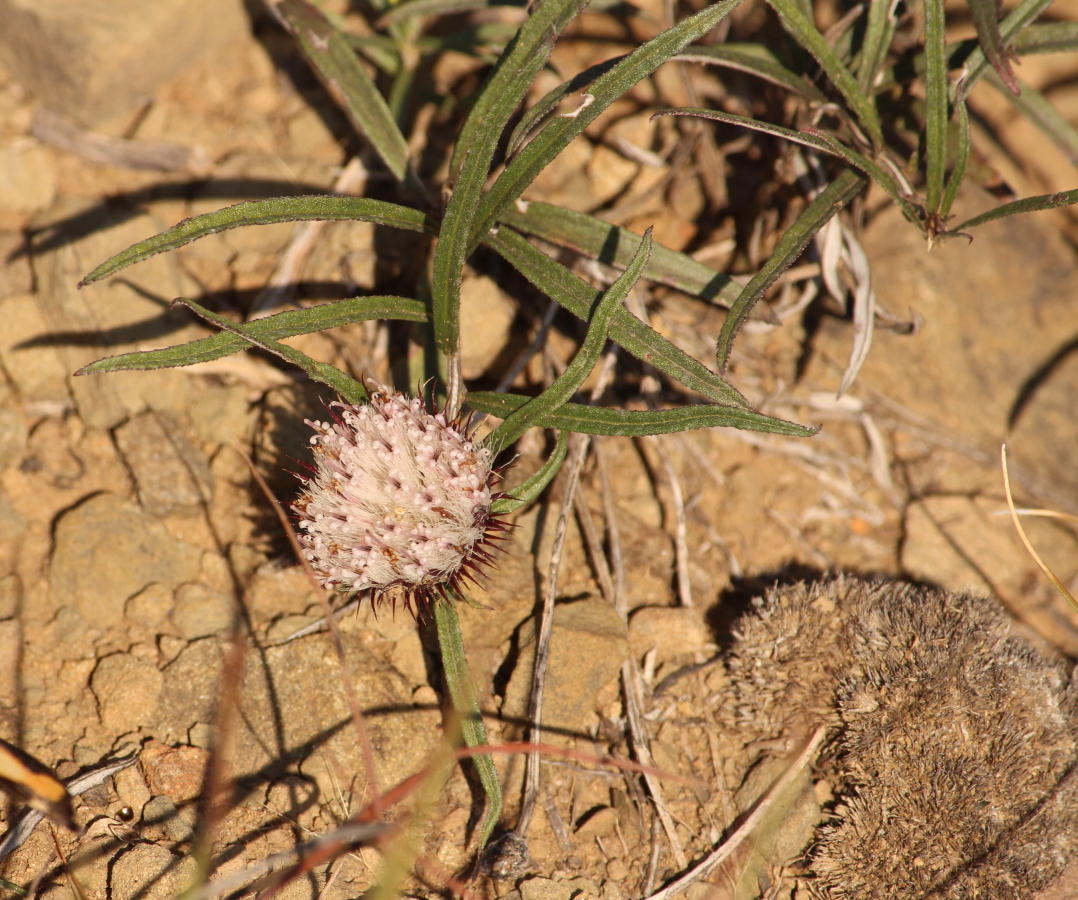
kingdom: Plantae
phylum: Tracheophyta
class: Magnoliopsida
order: Asterales
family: Asteraceae
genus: Dicoma
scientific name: Dicoma anomala
